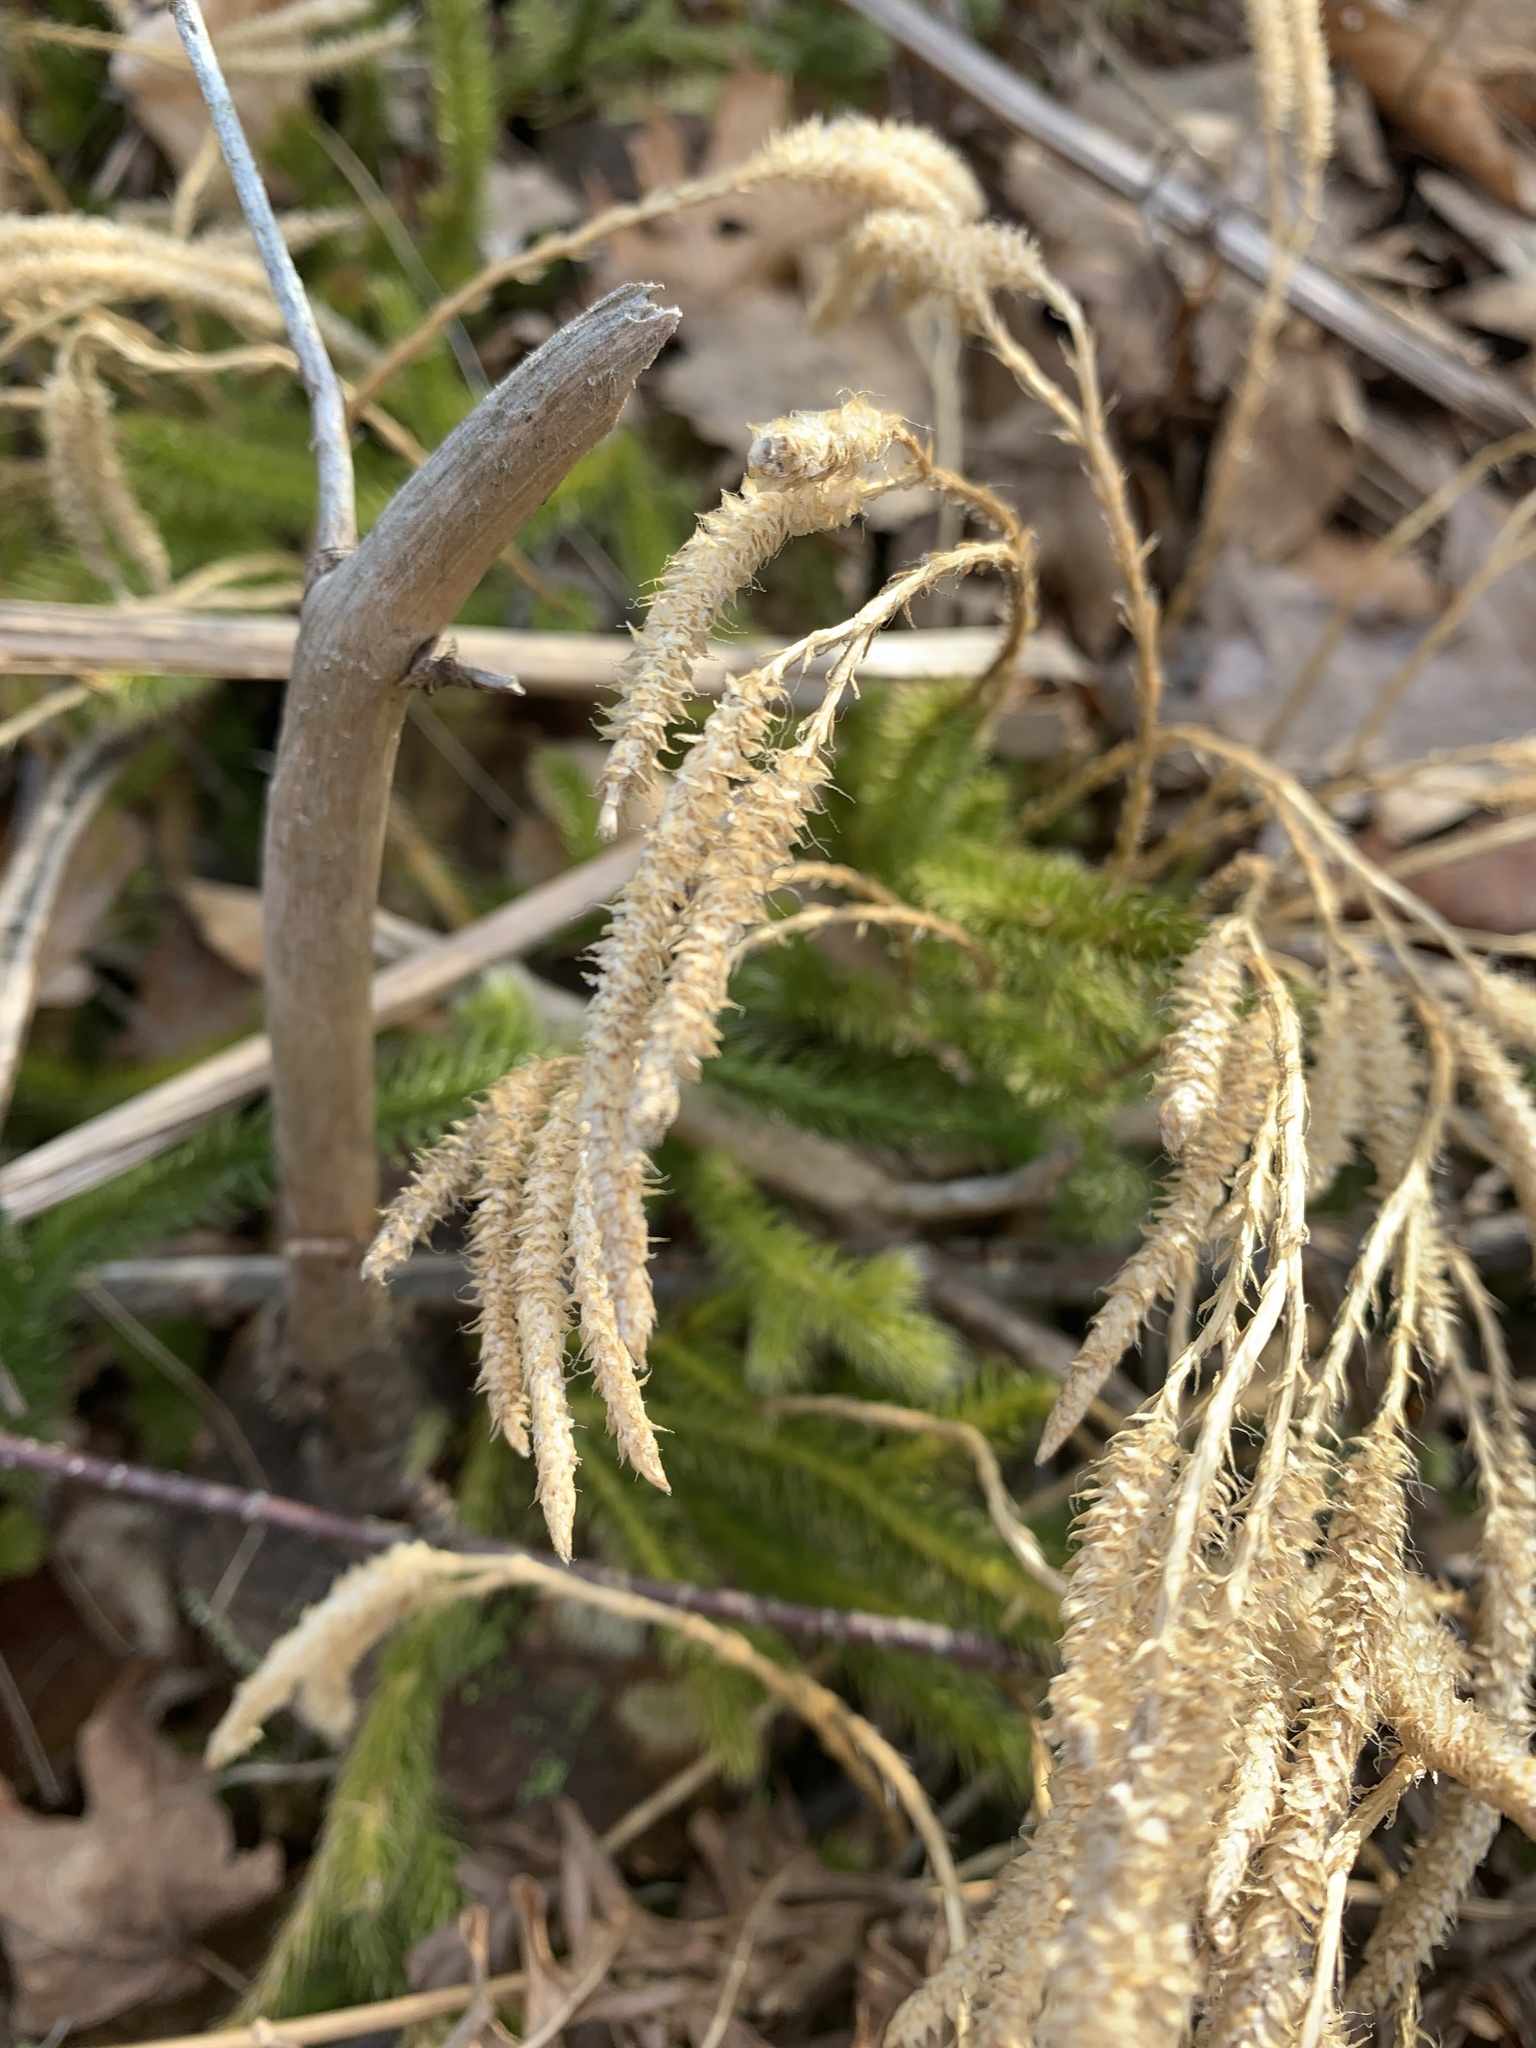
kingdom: Plantae
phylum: Tracheophyta
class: Lycopodiopsida
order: Lycopodiales
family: Lycopodiaceae
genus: Lycopodium
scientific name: Lycopodium clavatum
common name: Stag's-horn clubmoss
